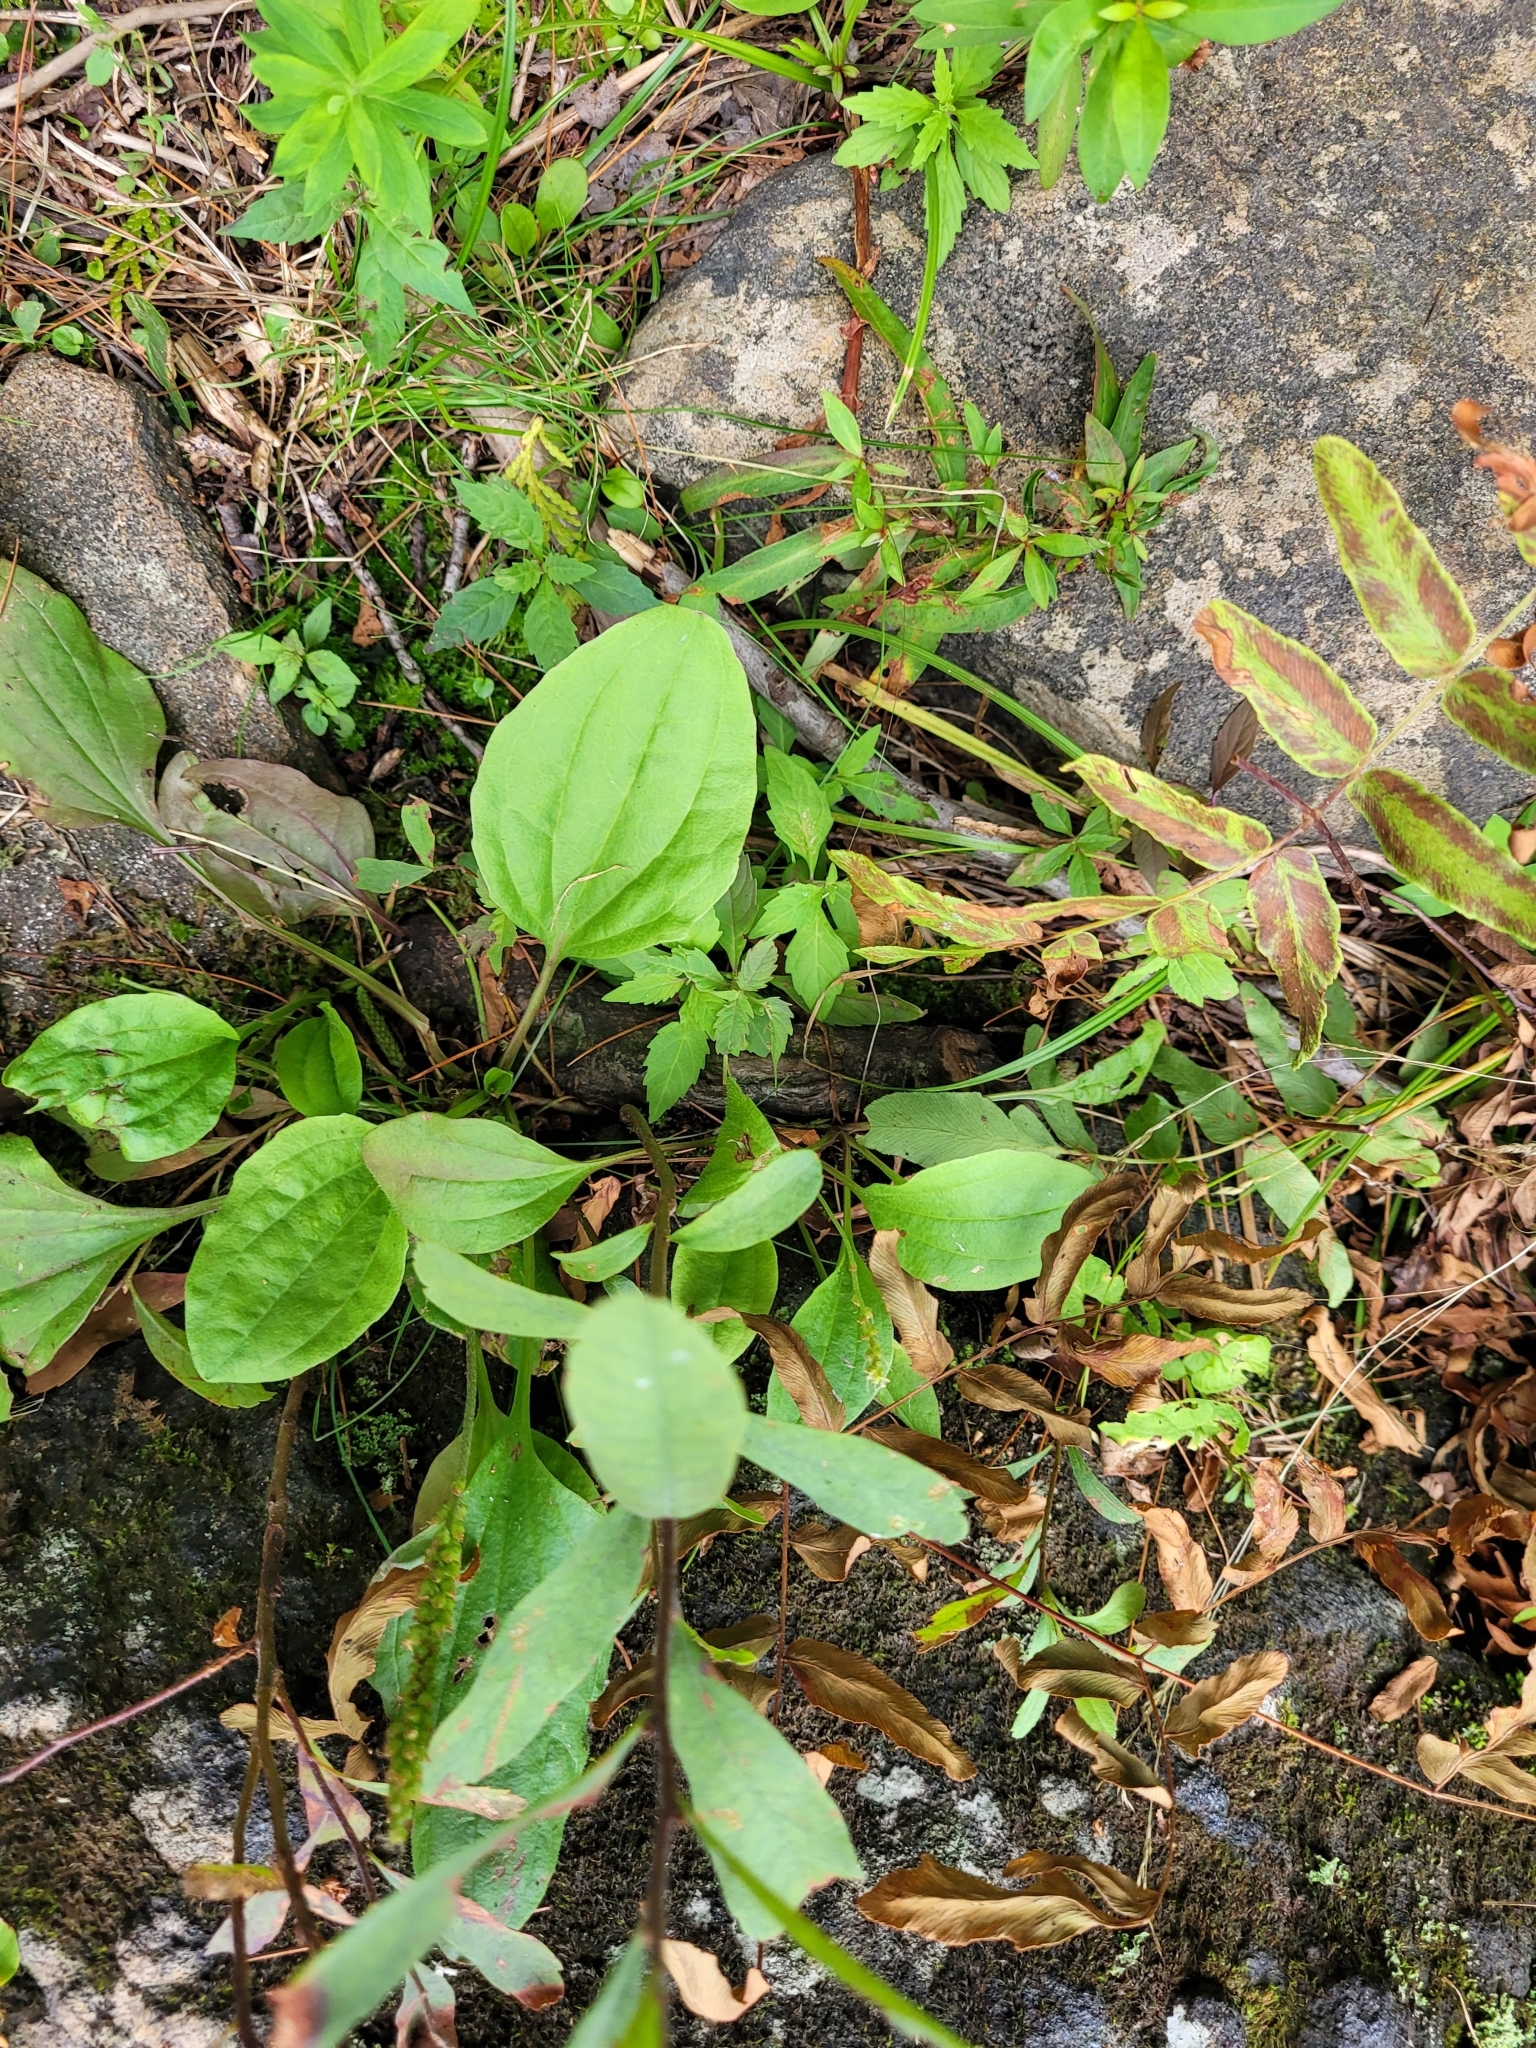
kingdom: Plantae
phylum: Tracheophyta
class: Magnoliopsida
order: Lamiales
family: Plantaginaceae
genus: Plantago
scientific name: Plantago major
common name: Common plantain
